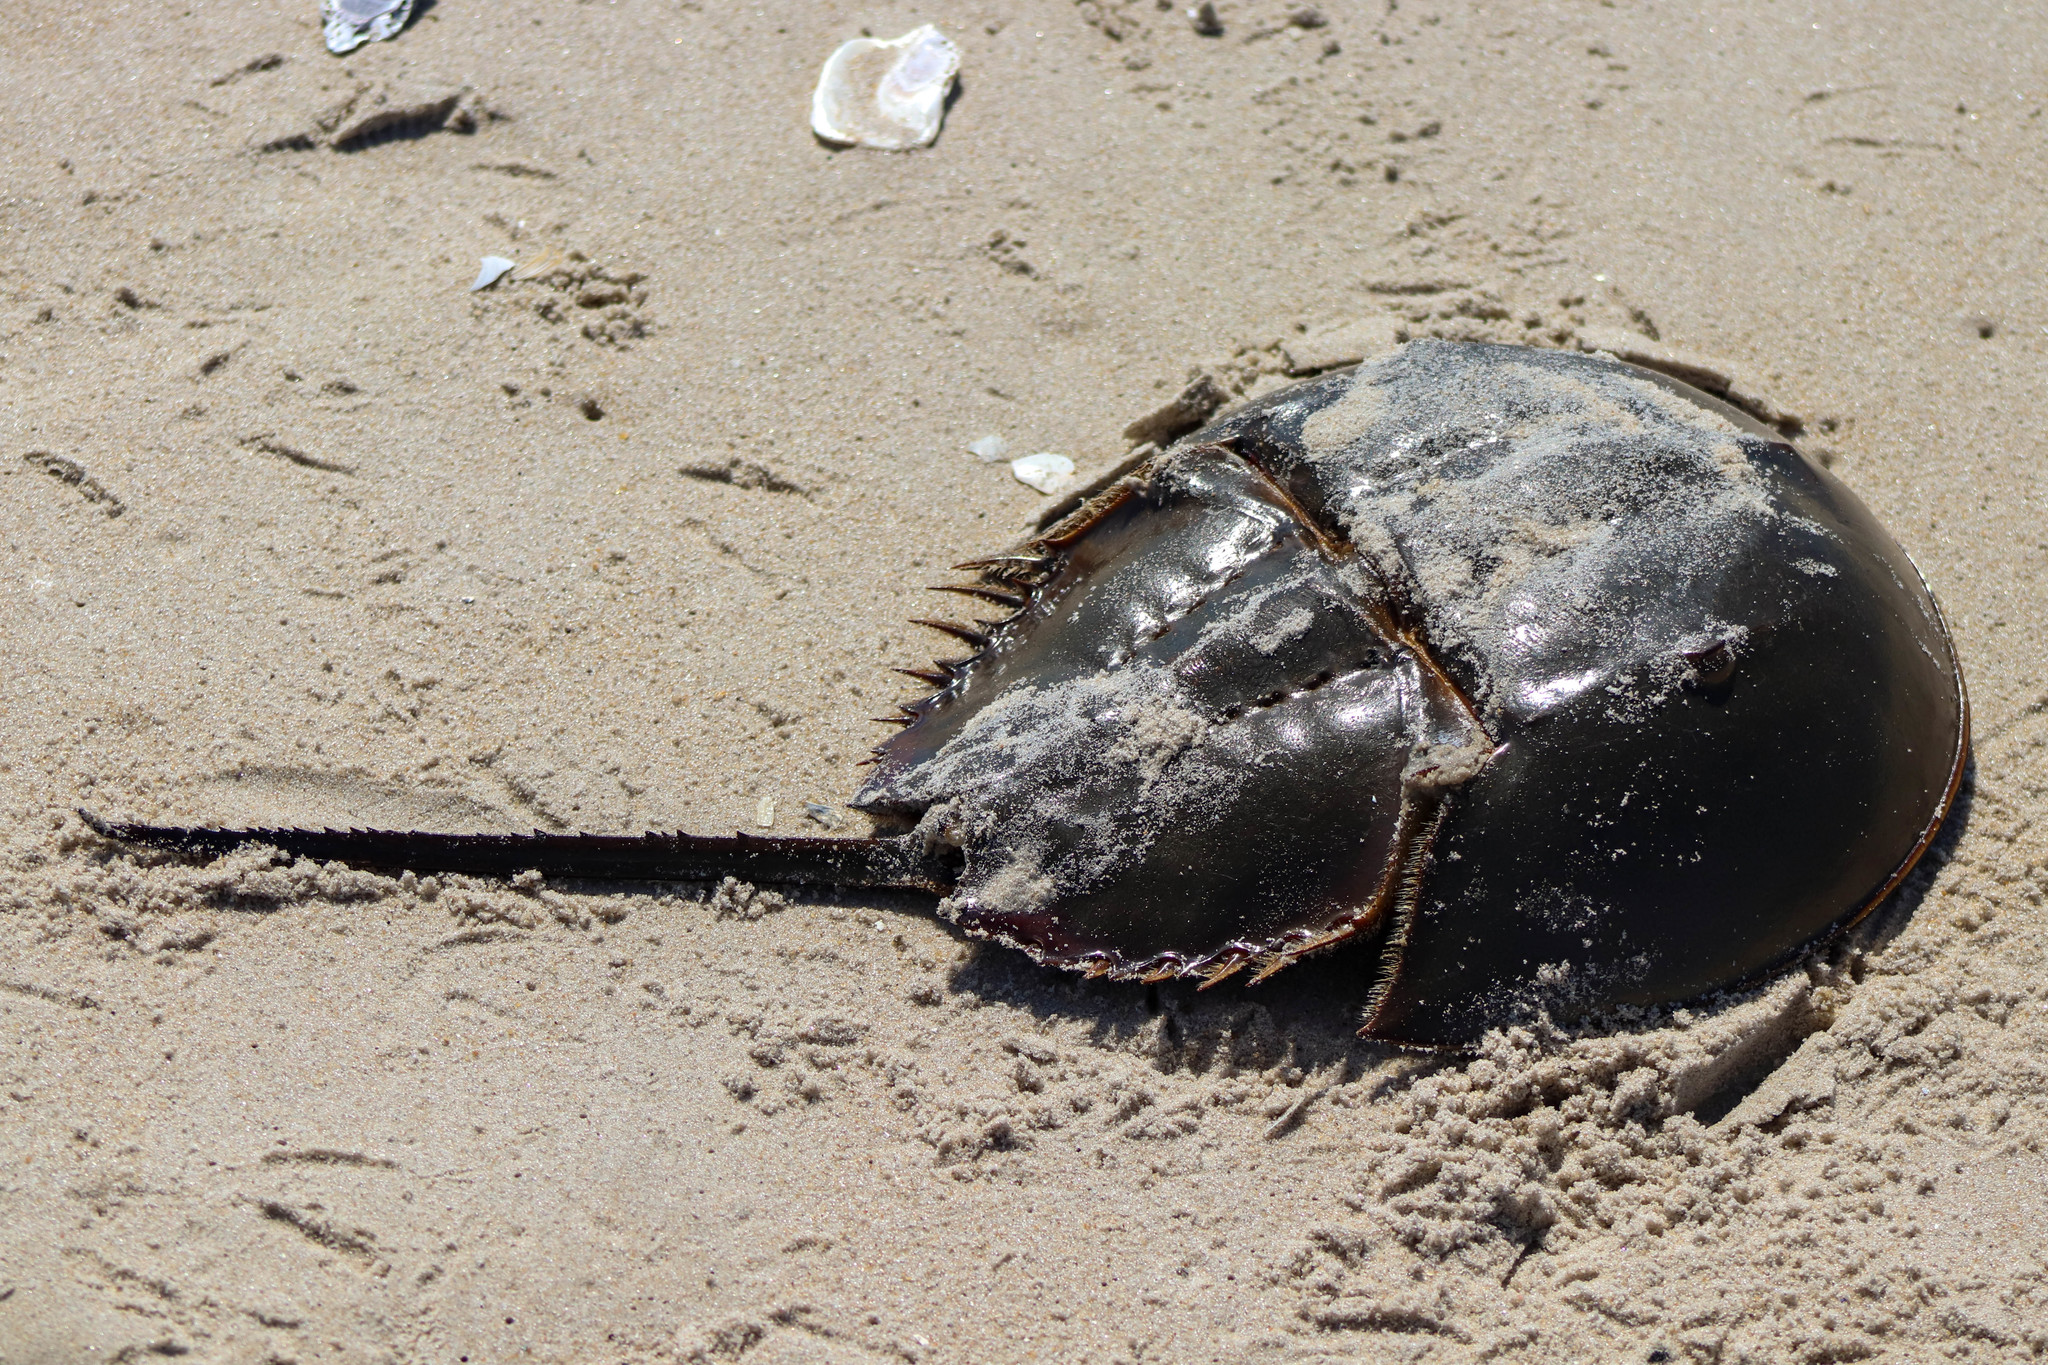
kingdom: Animalia
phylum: Arthropoda
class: Merostomata
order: Xiphosurida
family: Limulidae
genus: Limulus
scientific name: Limulus polyphemus
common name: Horseshoe crab
